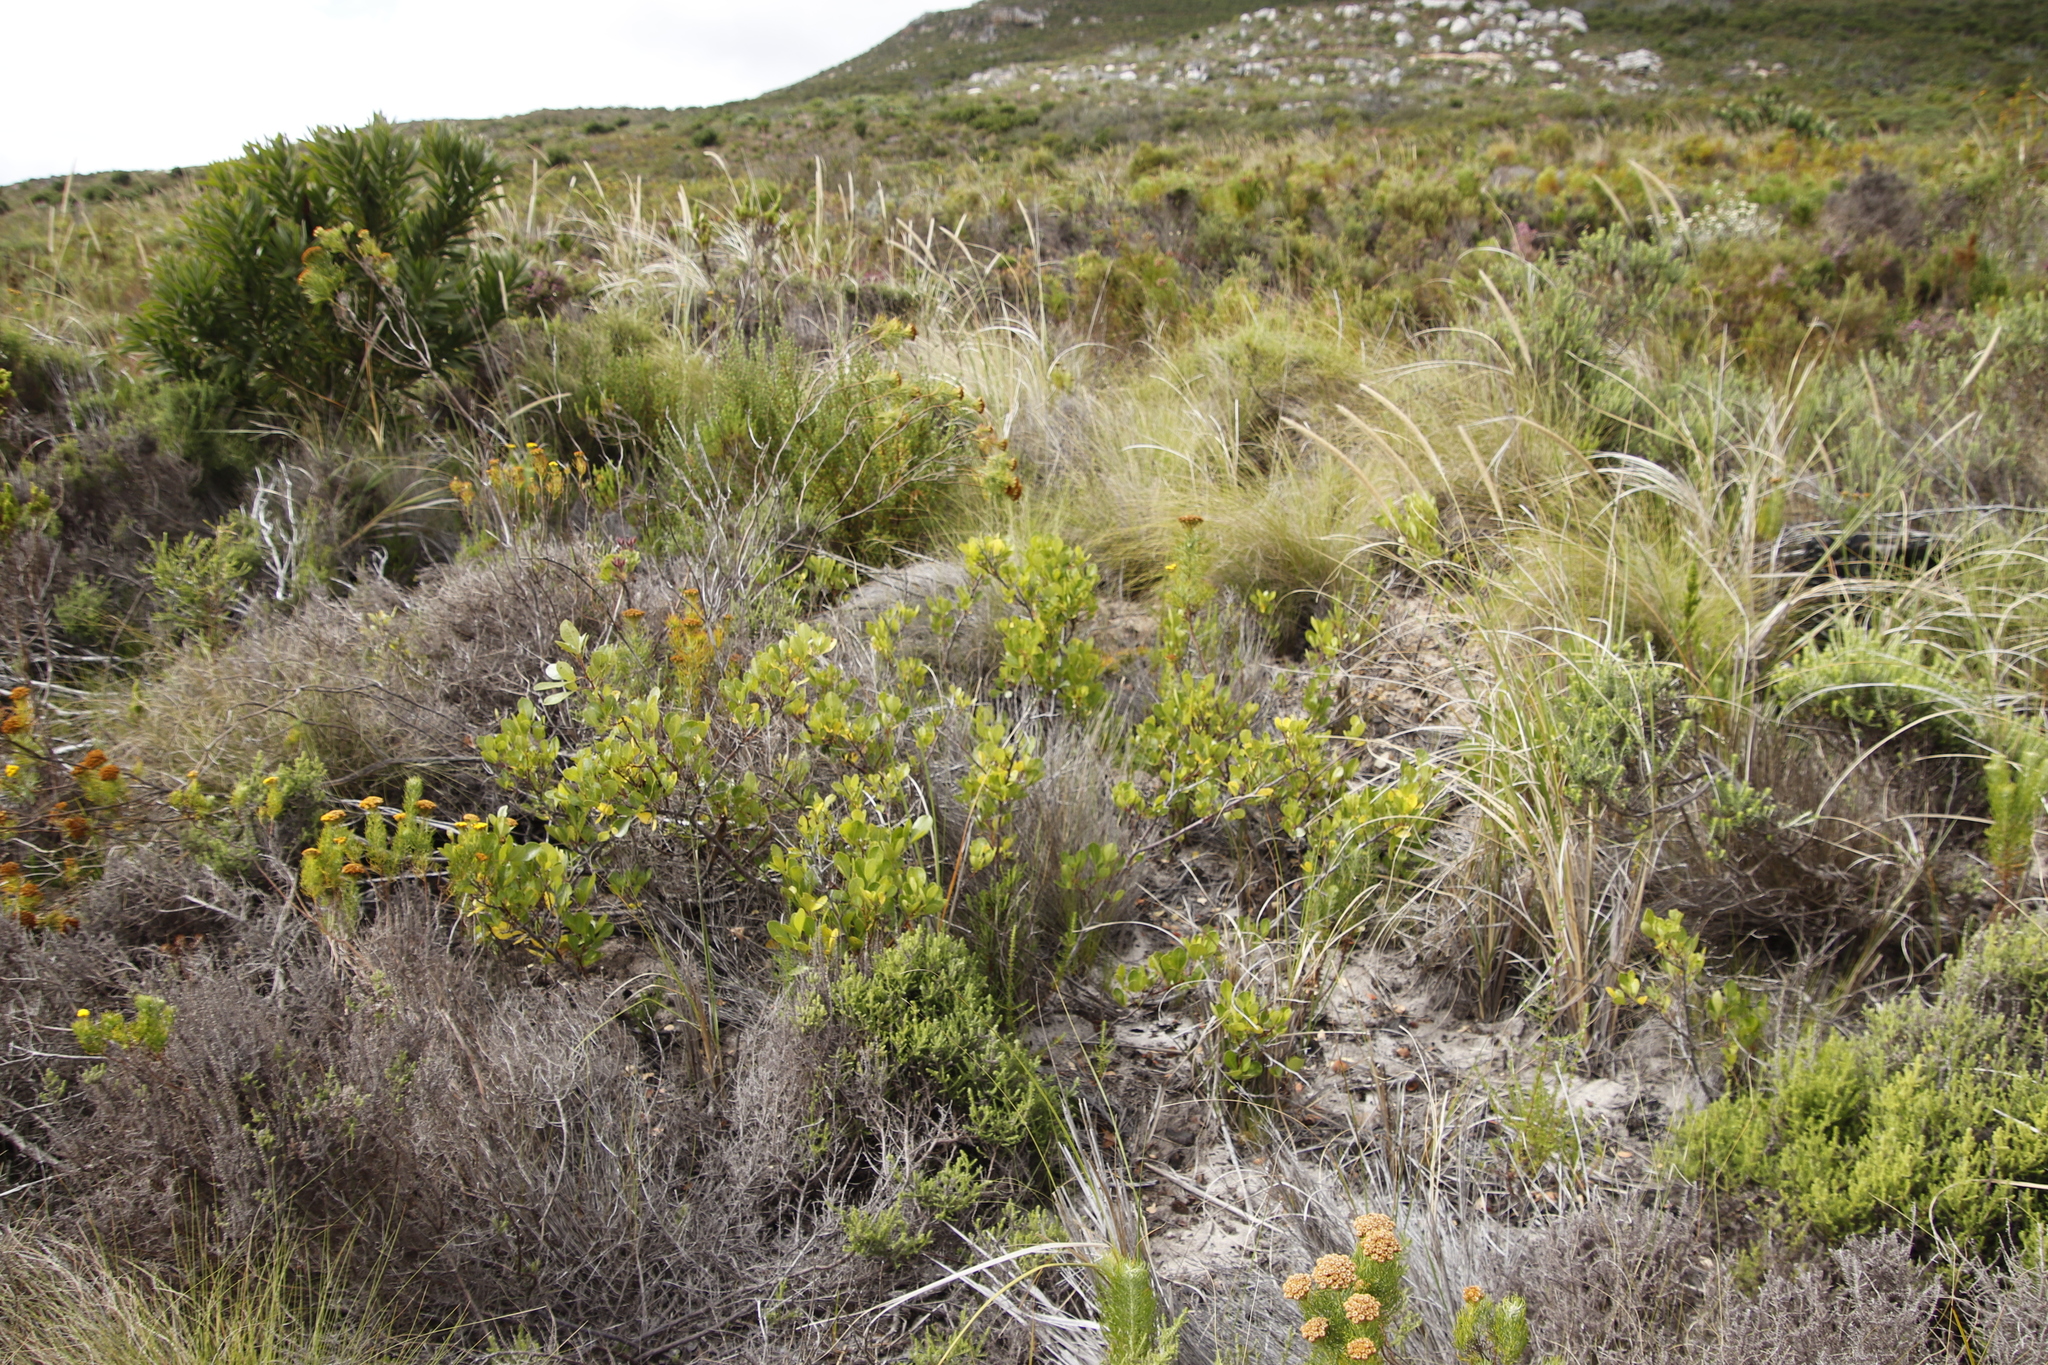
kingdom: Plantae
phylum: Tracheophyta
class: Magnoliopsida
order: Sapindales
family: Anacardiaceae
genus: Searsia
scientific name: Searsia laevigata
